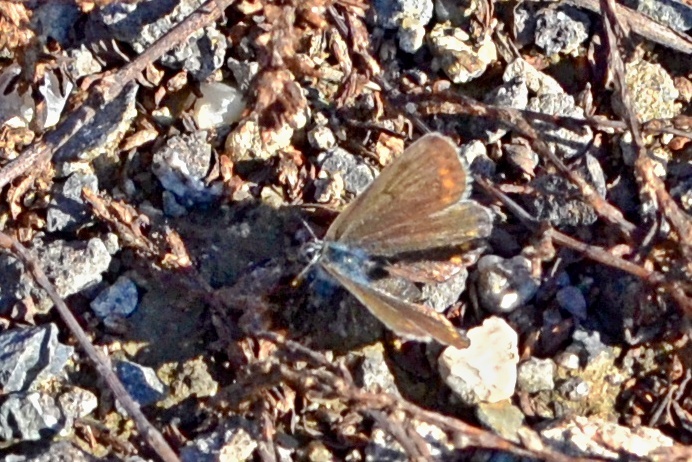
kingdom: Animalia
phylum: Arthropoda
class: Insecta
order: Lepidoptera
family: Lycaenidae
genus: Polyommatus
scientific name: Polyommatus icarus
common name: Common blue
